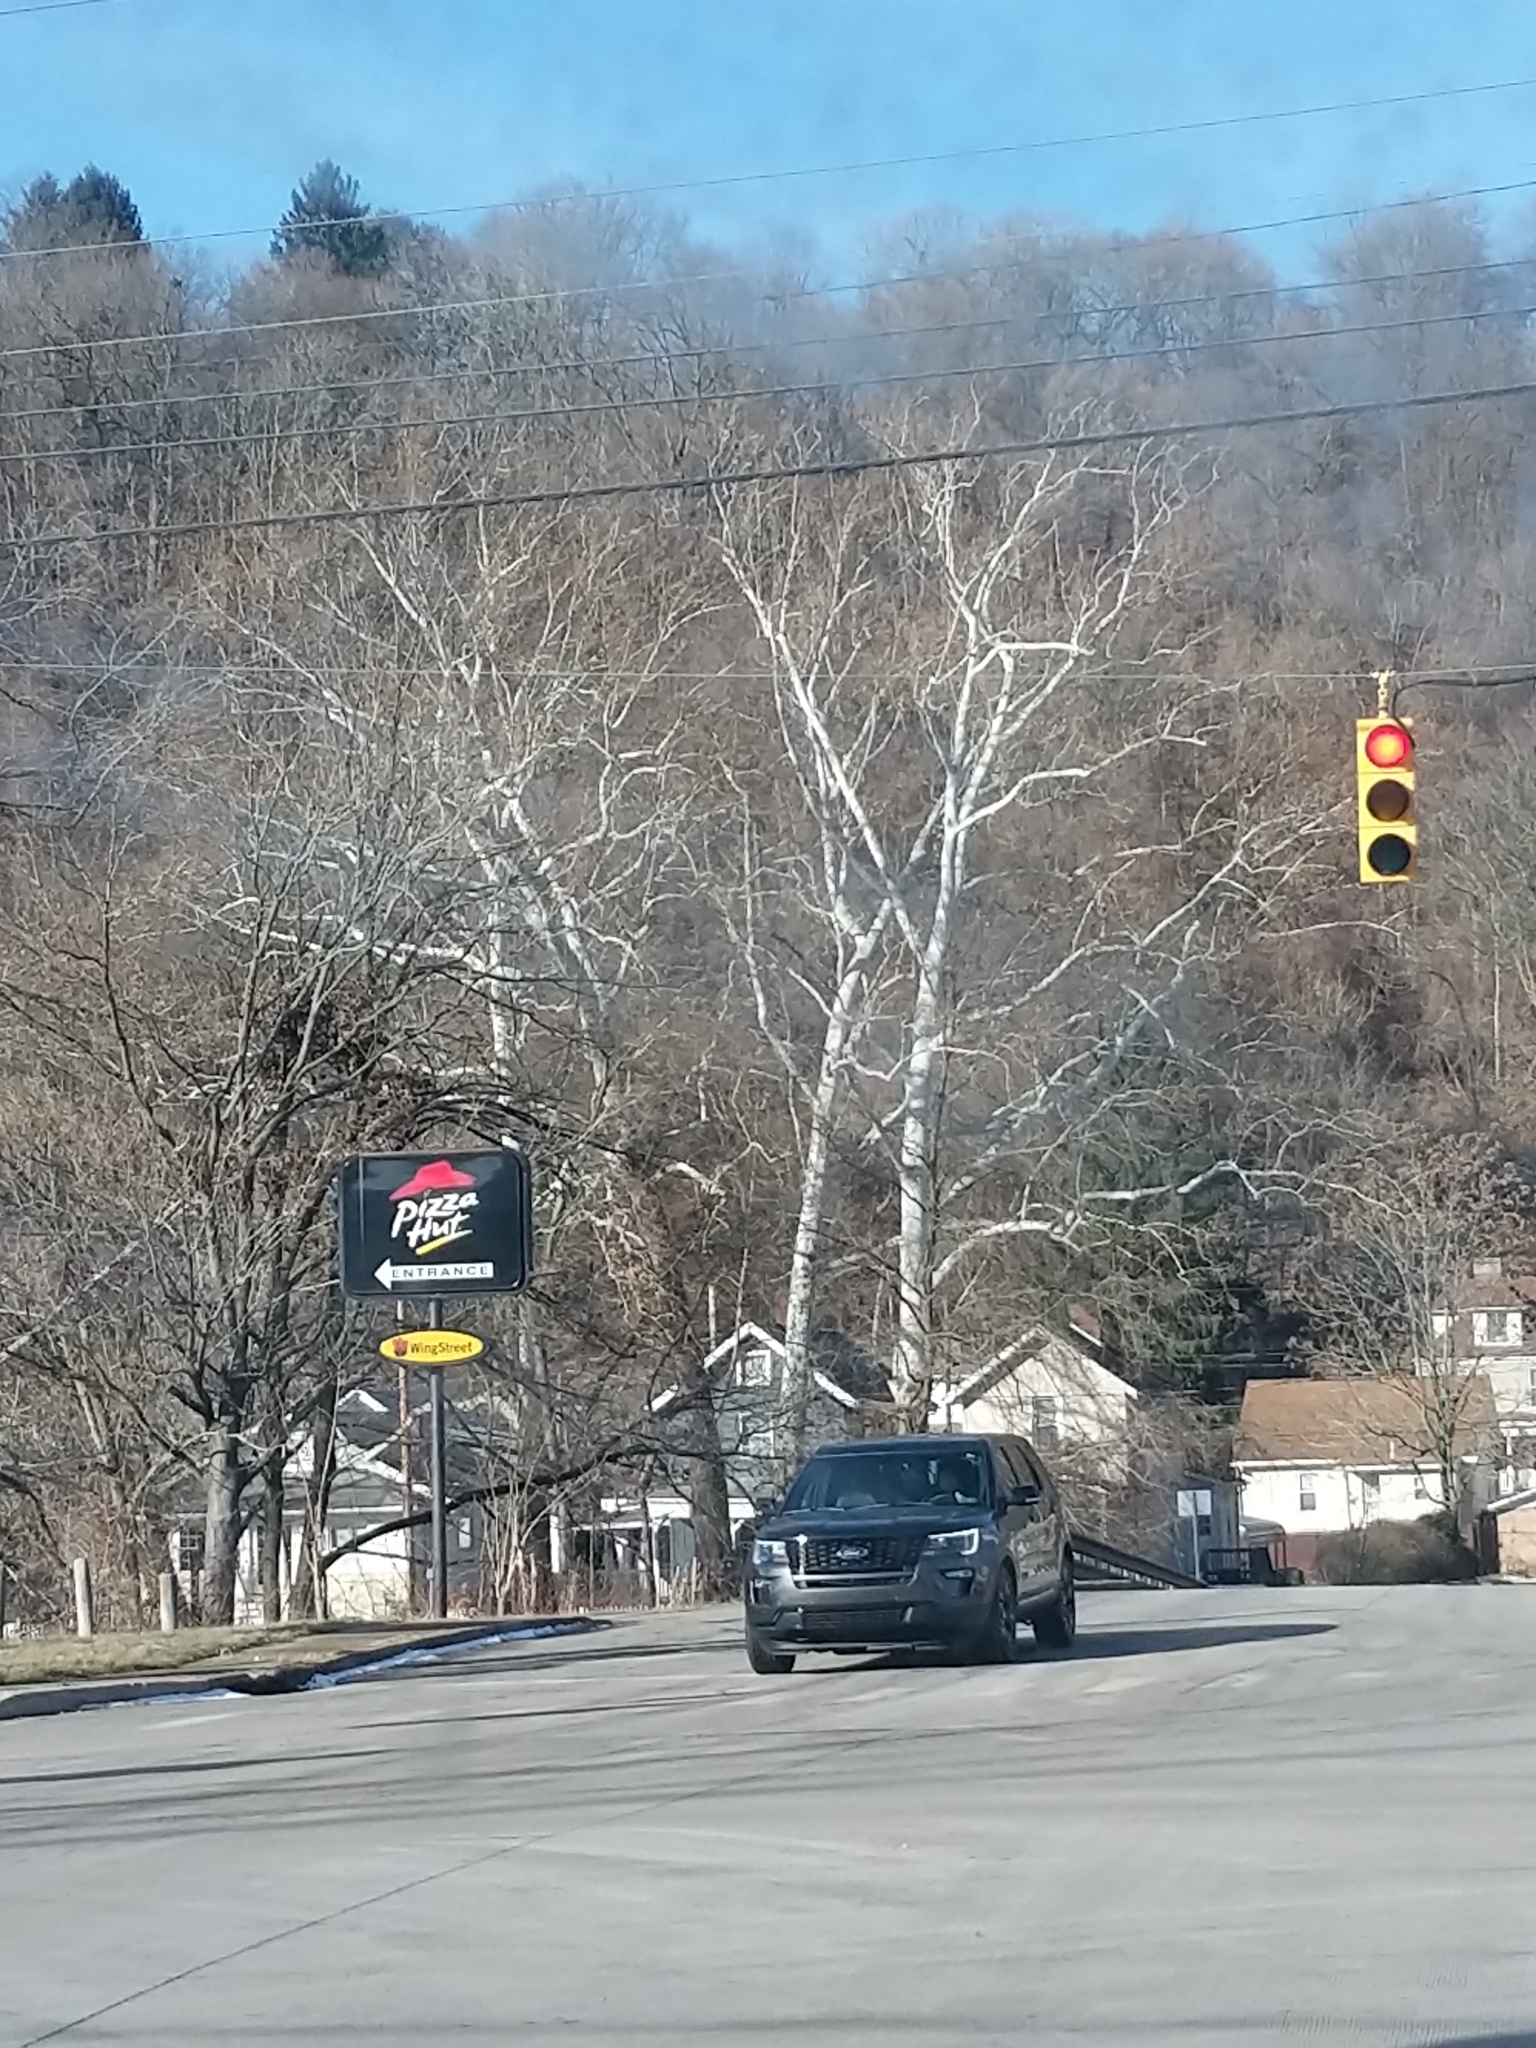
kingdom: Plantae
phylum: Tracheophyta
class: Magnoliopsida
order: Proteales
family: Platanaceae
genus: Platanus
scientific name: Platanus occidentalis
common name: American sycamore
